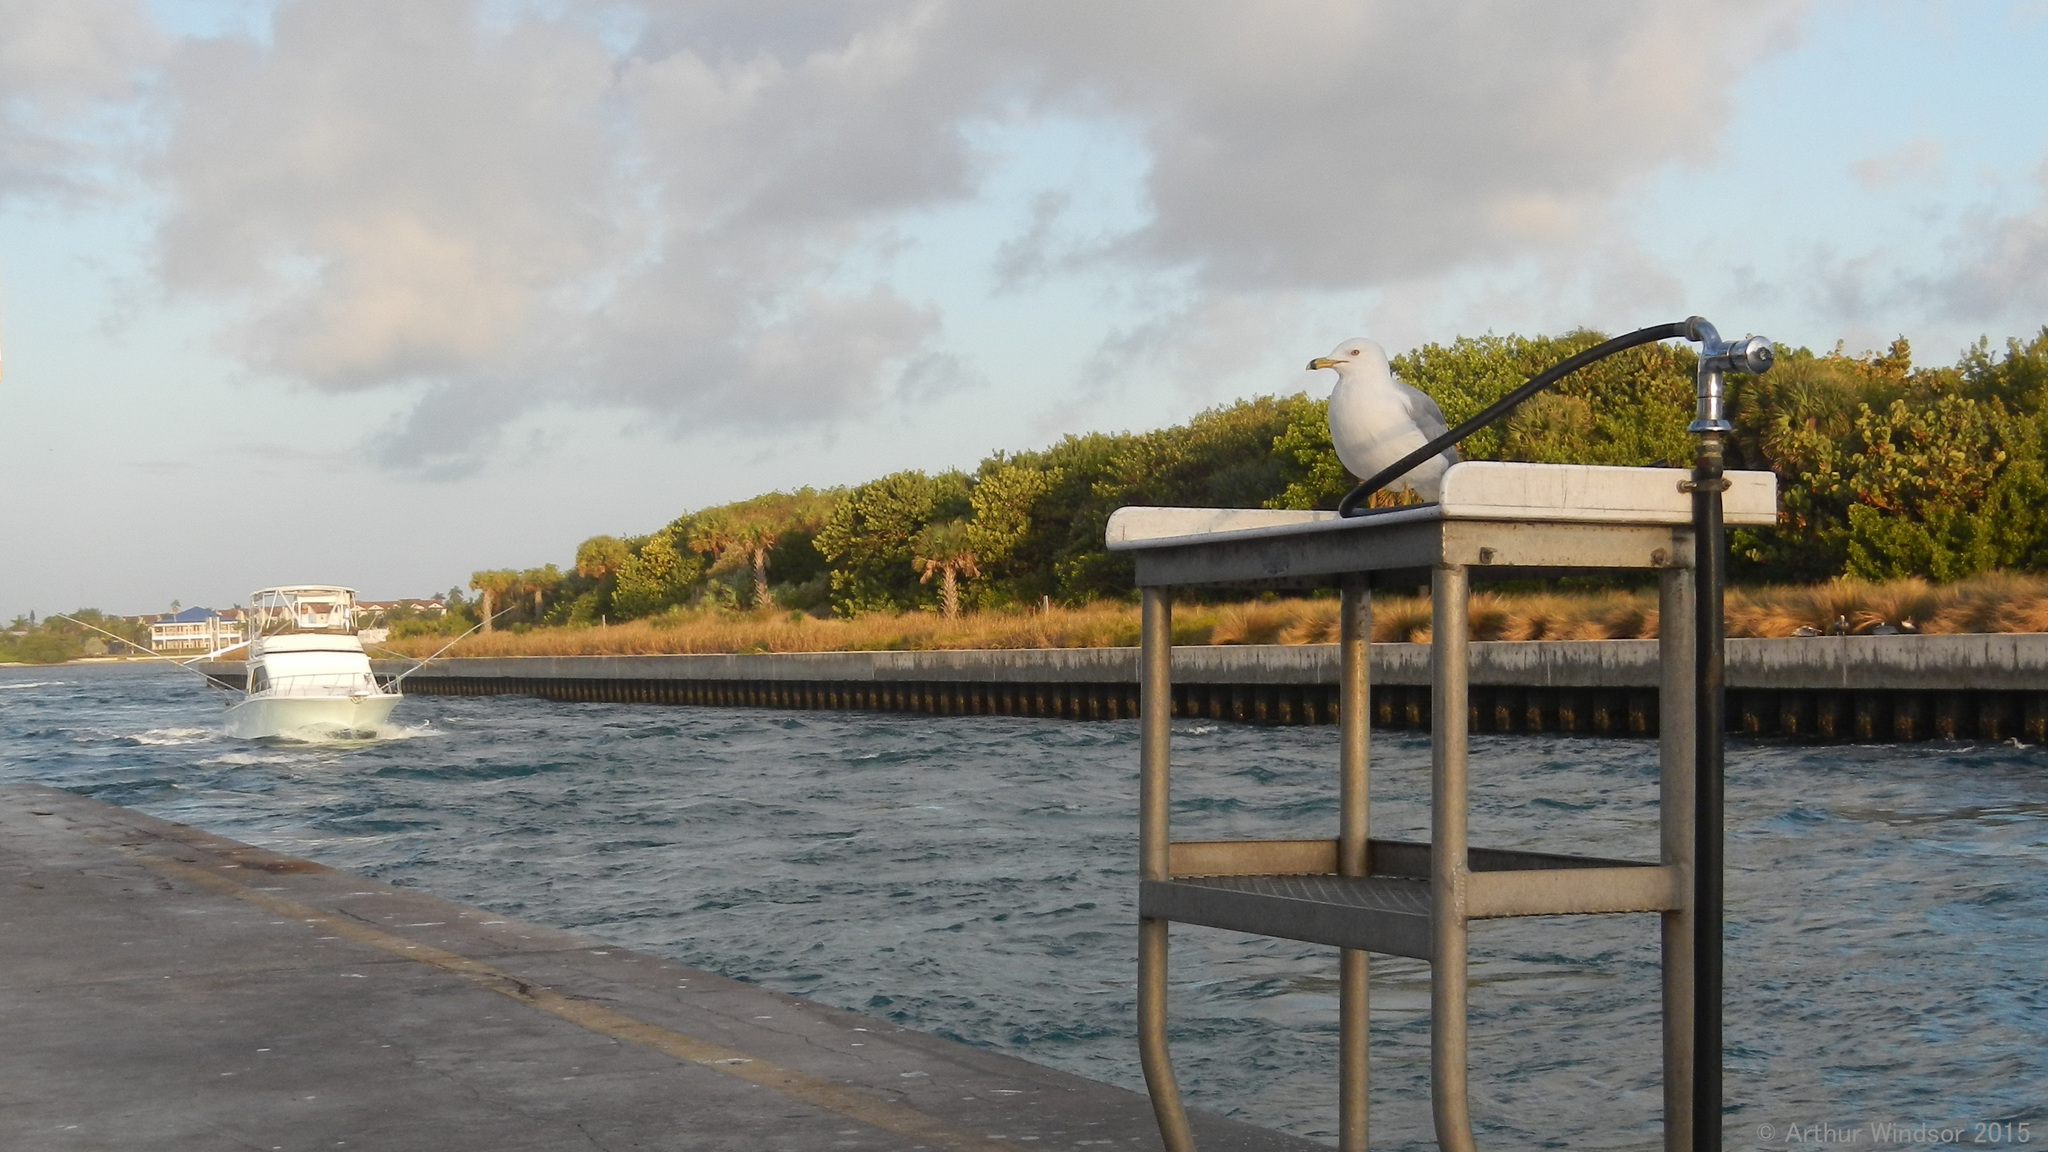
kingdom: Animalia
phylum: Chordata
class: Aves
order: Charadriiformes
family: Laridae
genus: Larus
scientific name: Larus delawarensis
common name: Ring-billed gull
